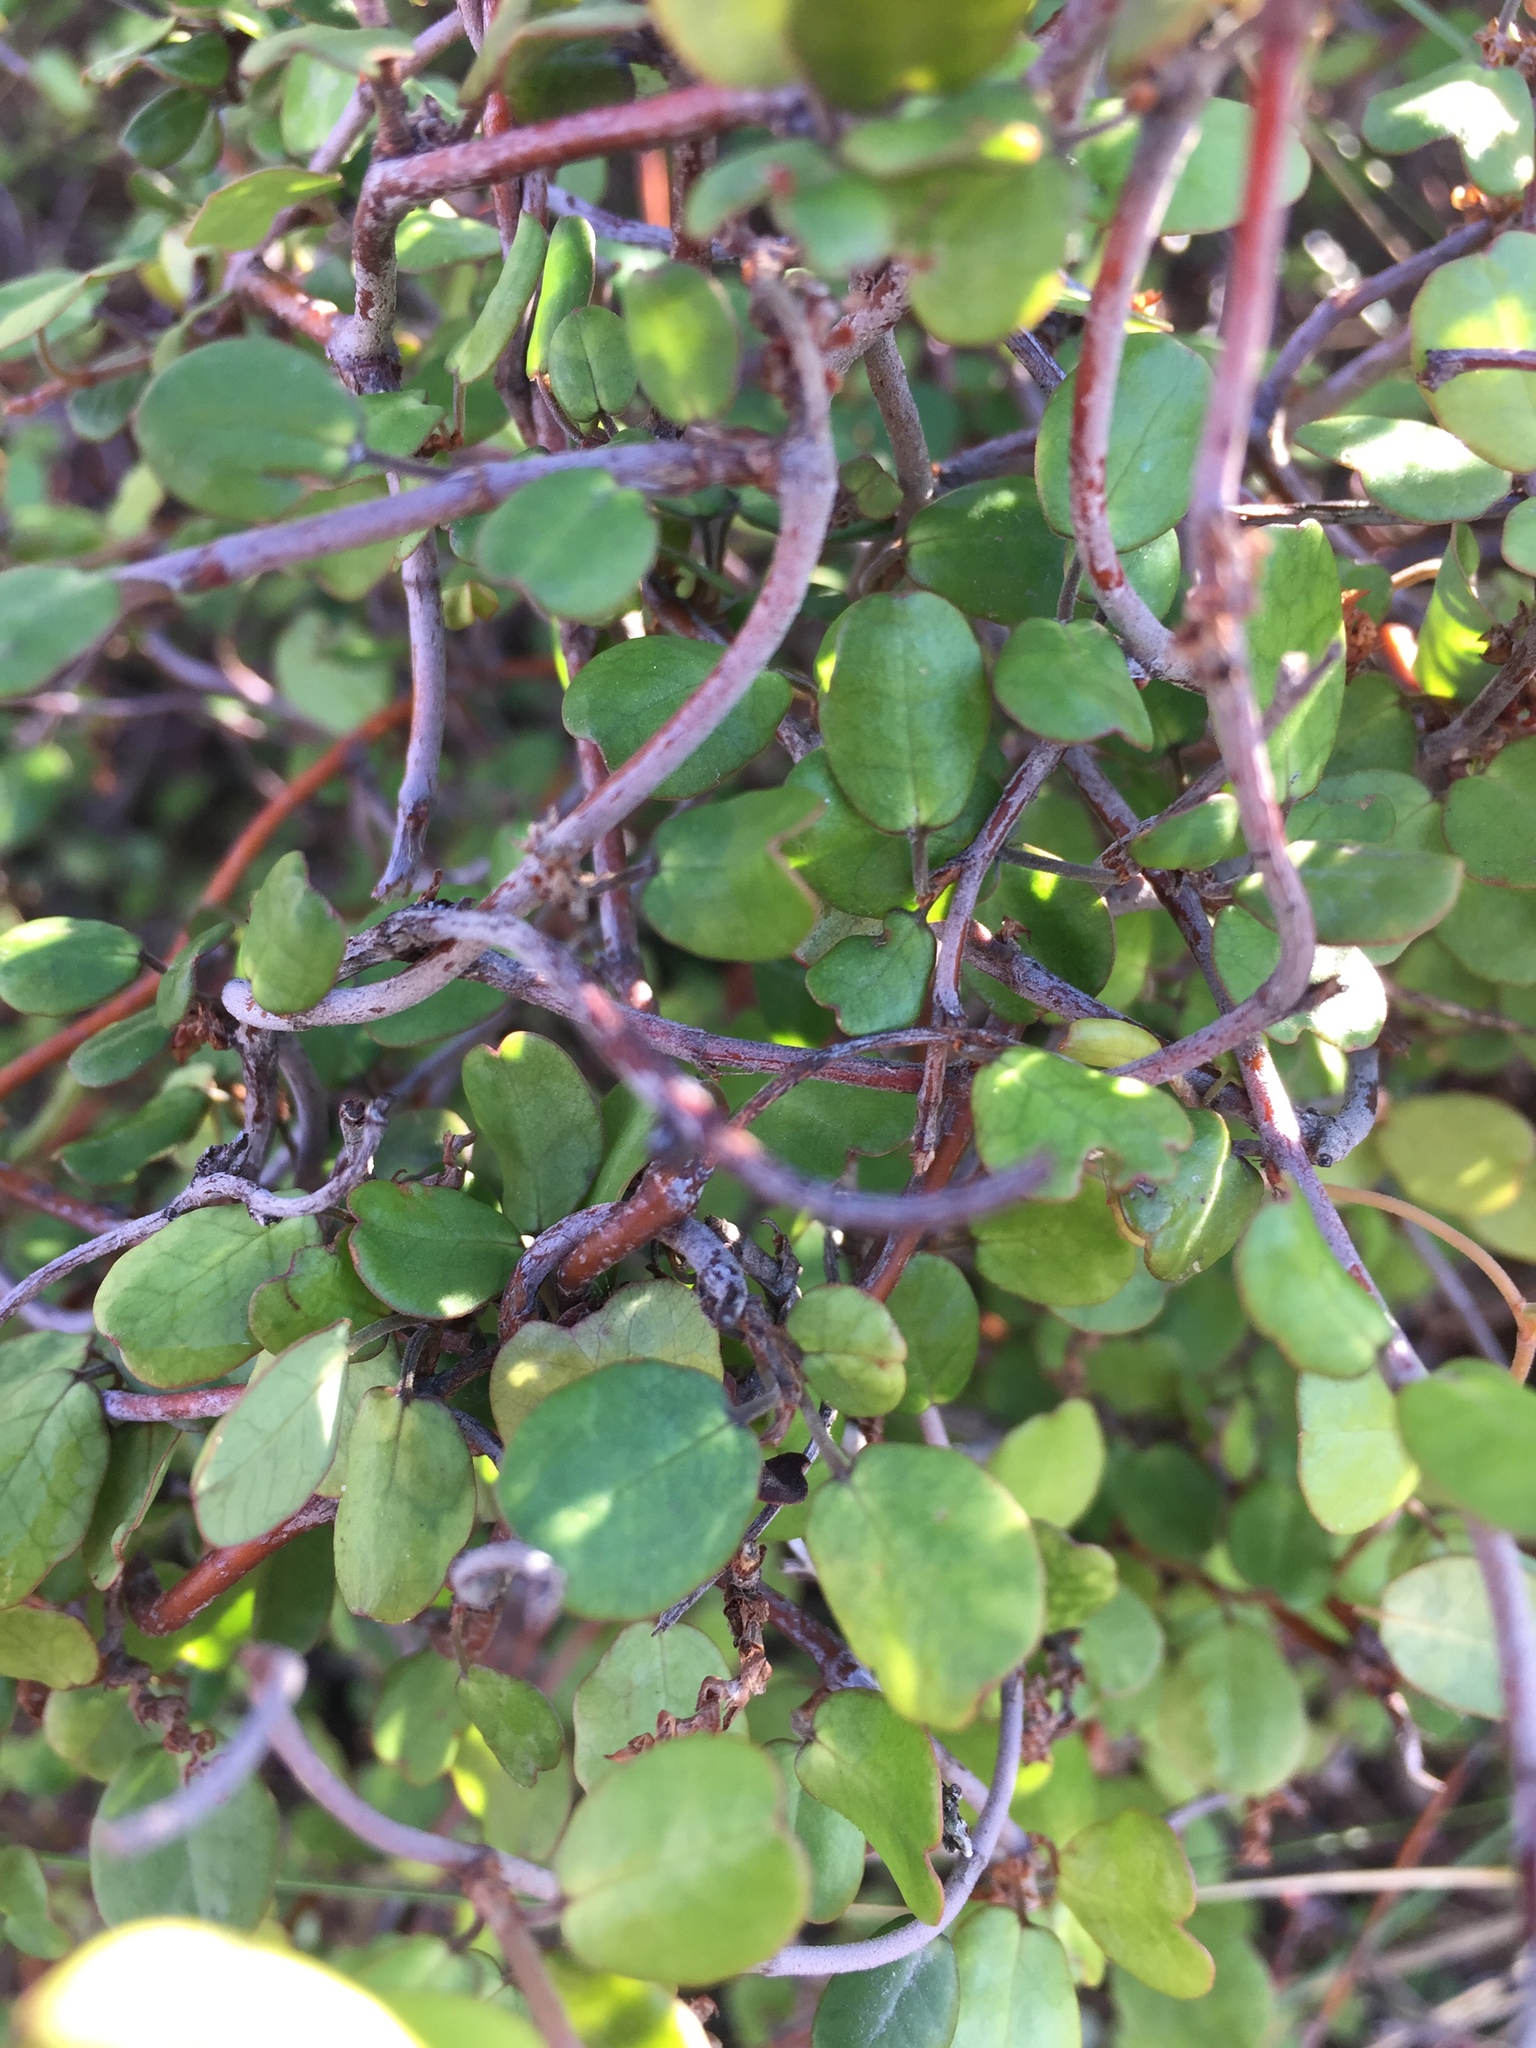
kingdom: Plantae
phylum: Tracheophyta
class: Magnoliopsida
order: Caryophyllales
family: Polygonaceae
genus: Muehlenbeckia
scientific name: Muehlenbeckia complexa
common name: Wireplant
